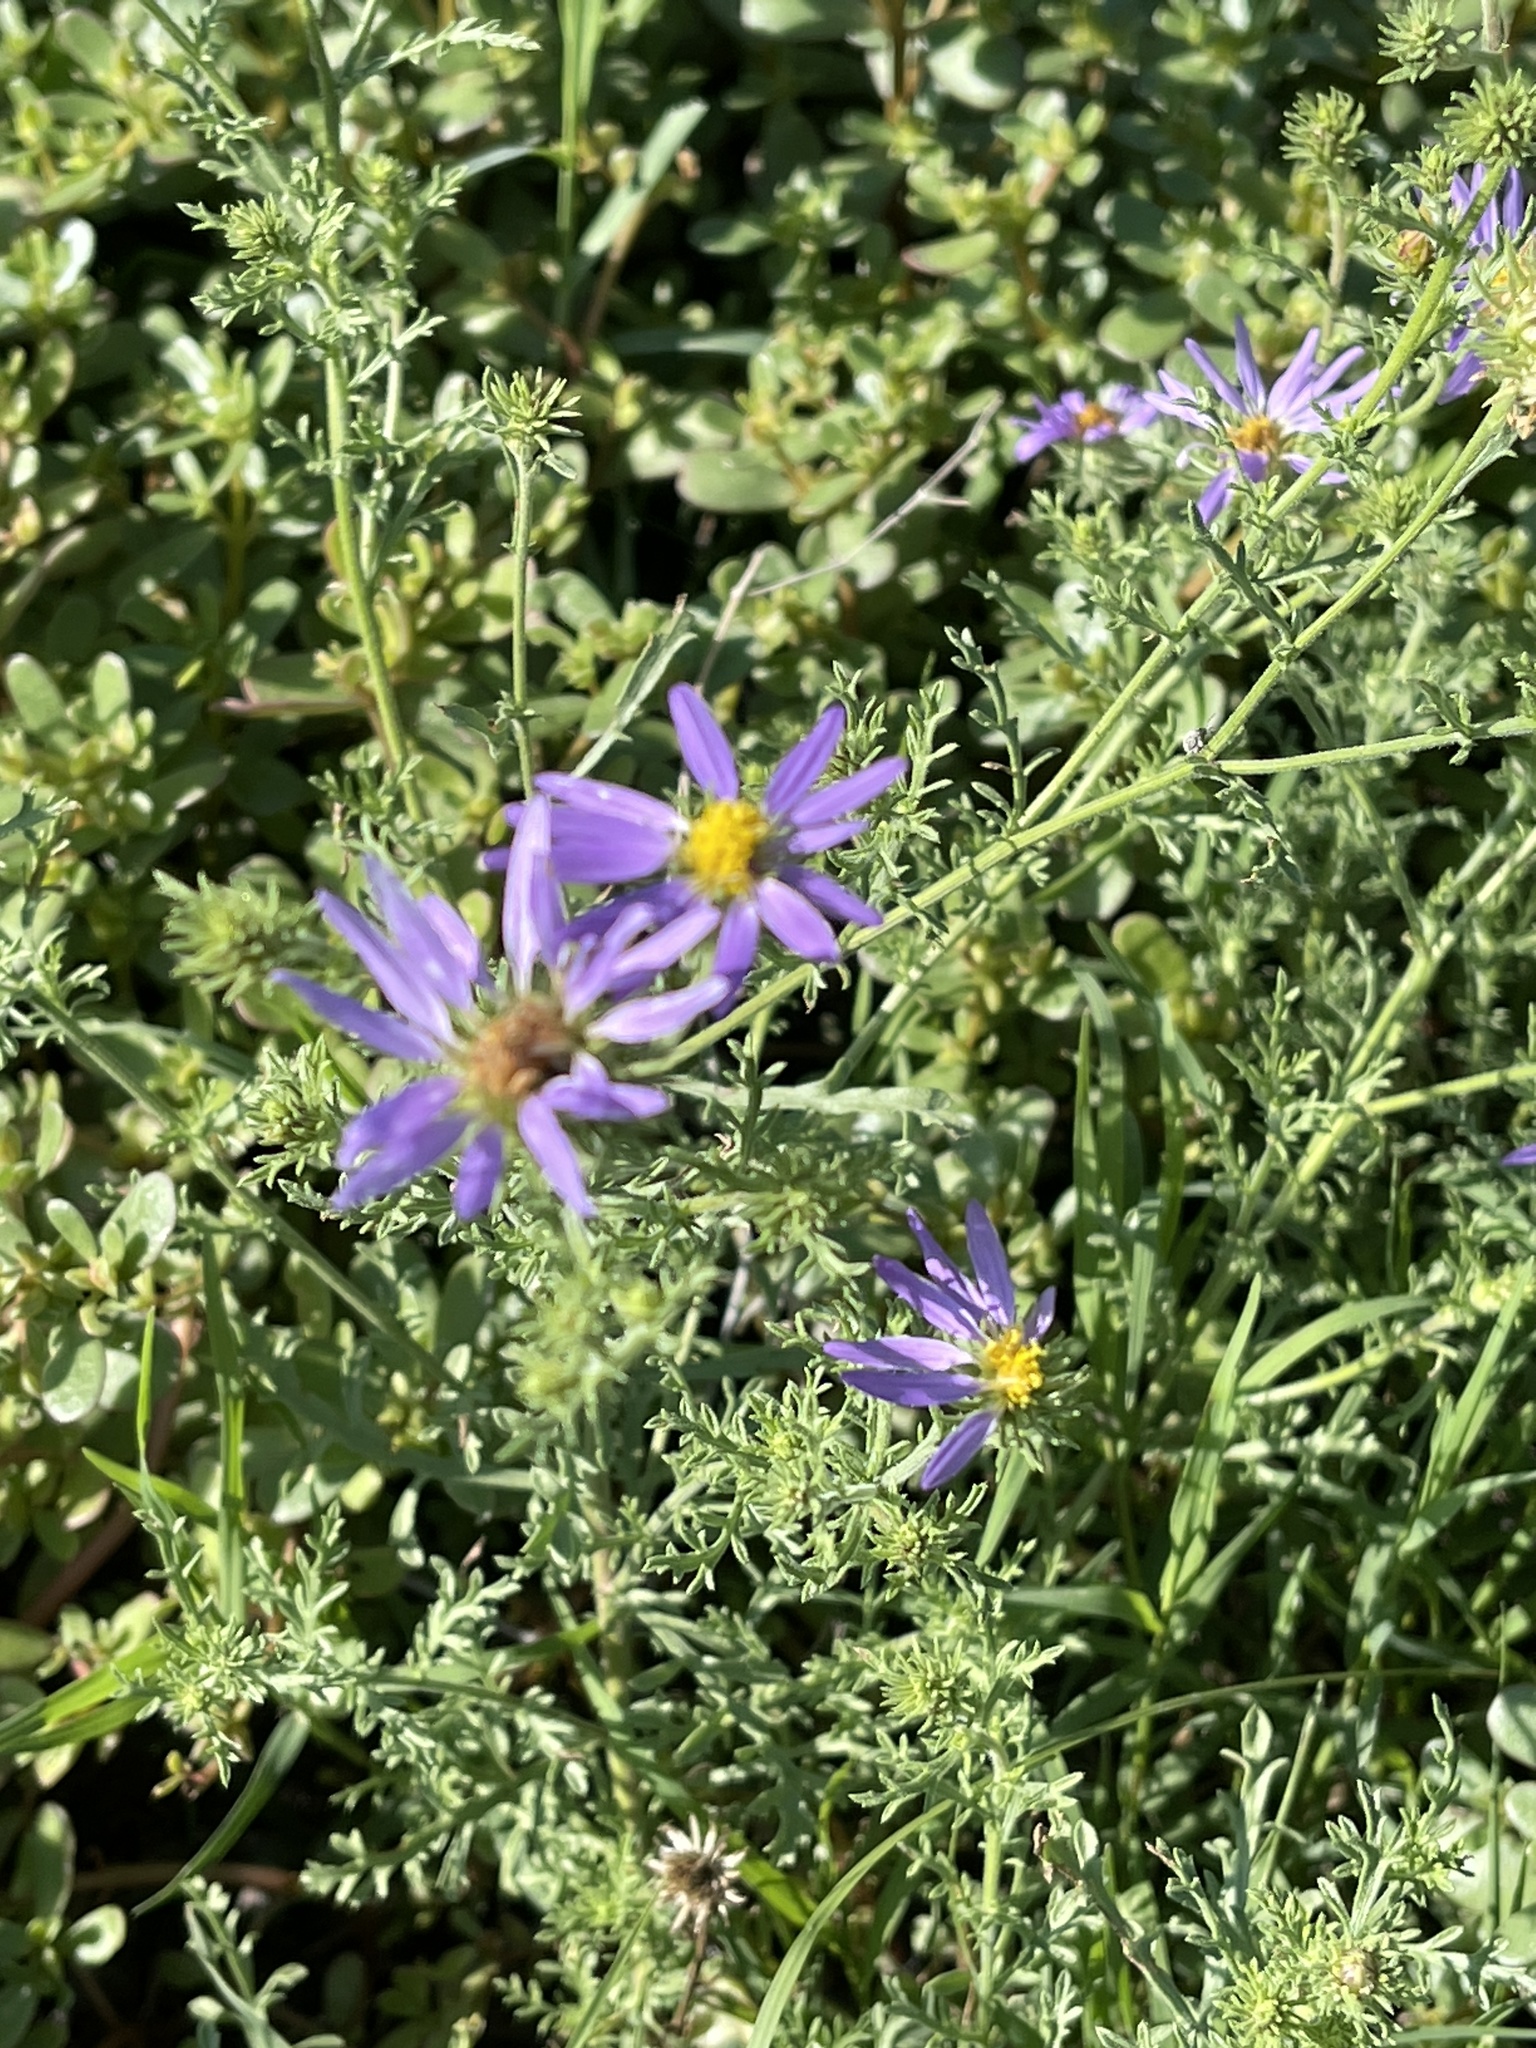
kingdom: Plantae
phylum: Tracheophyta
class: Magnoliopsida
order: Asterales
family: Asteraceae
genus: Machaeranthera
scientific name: Machaeranthera tanacetifolia
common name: Tansy-aster
